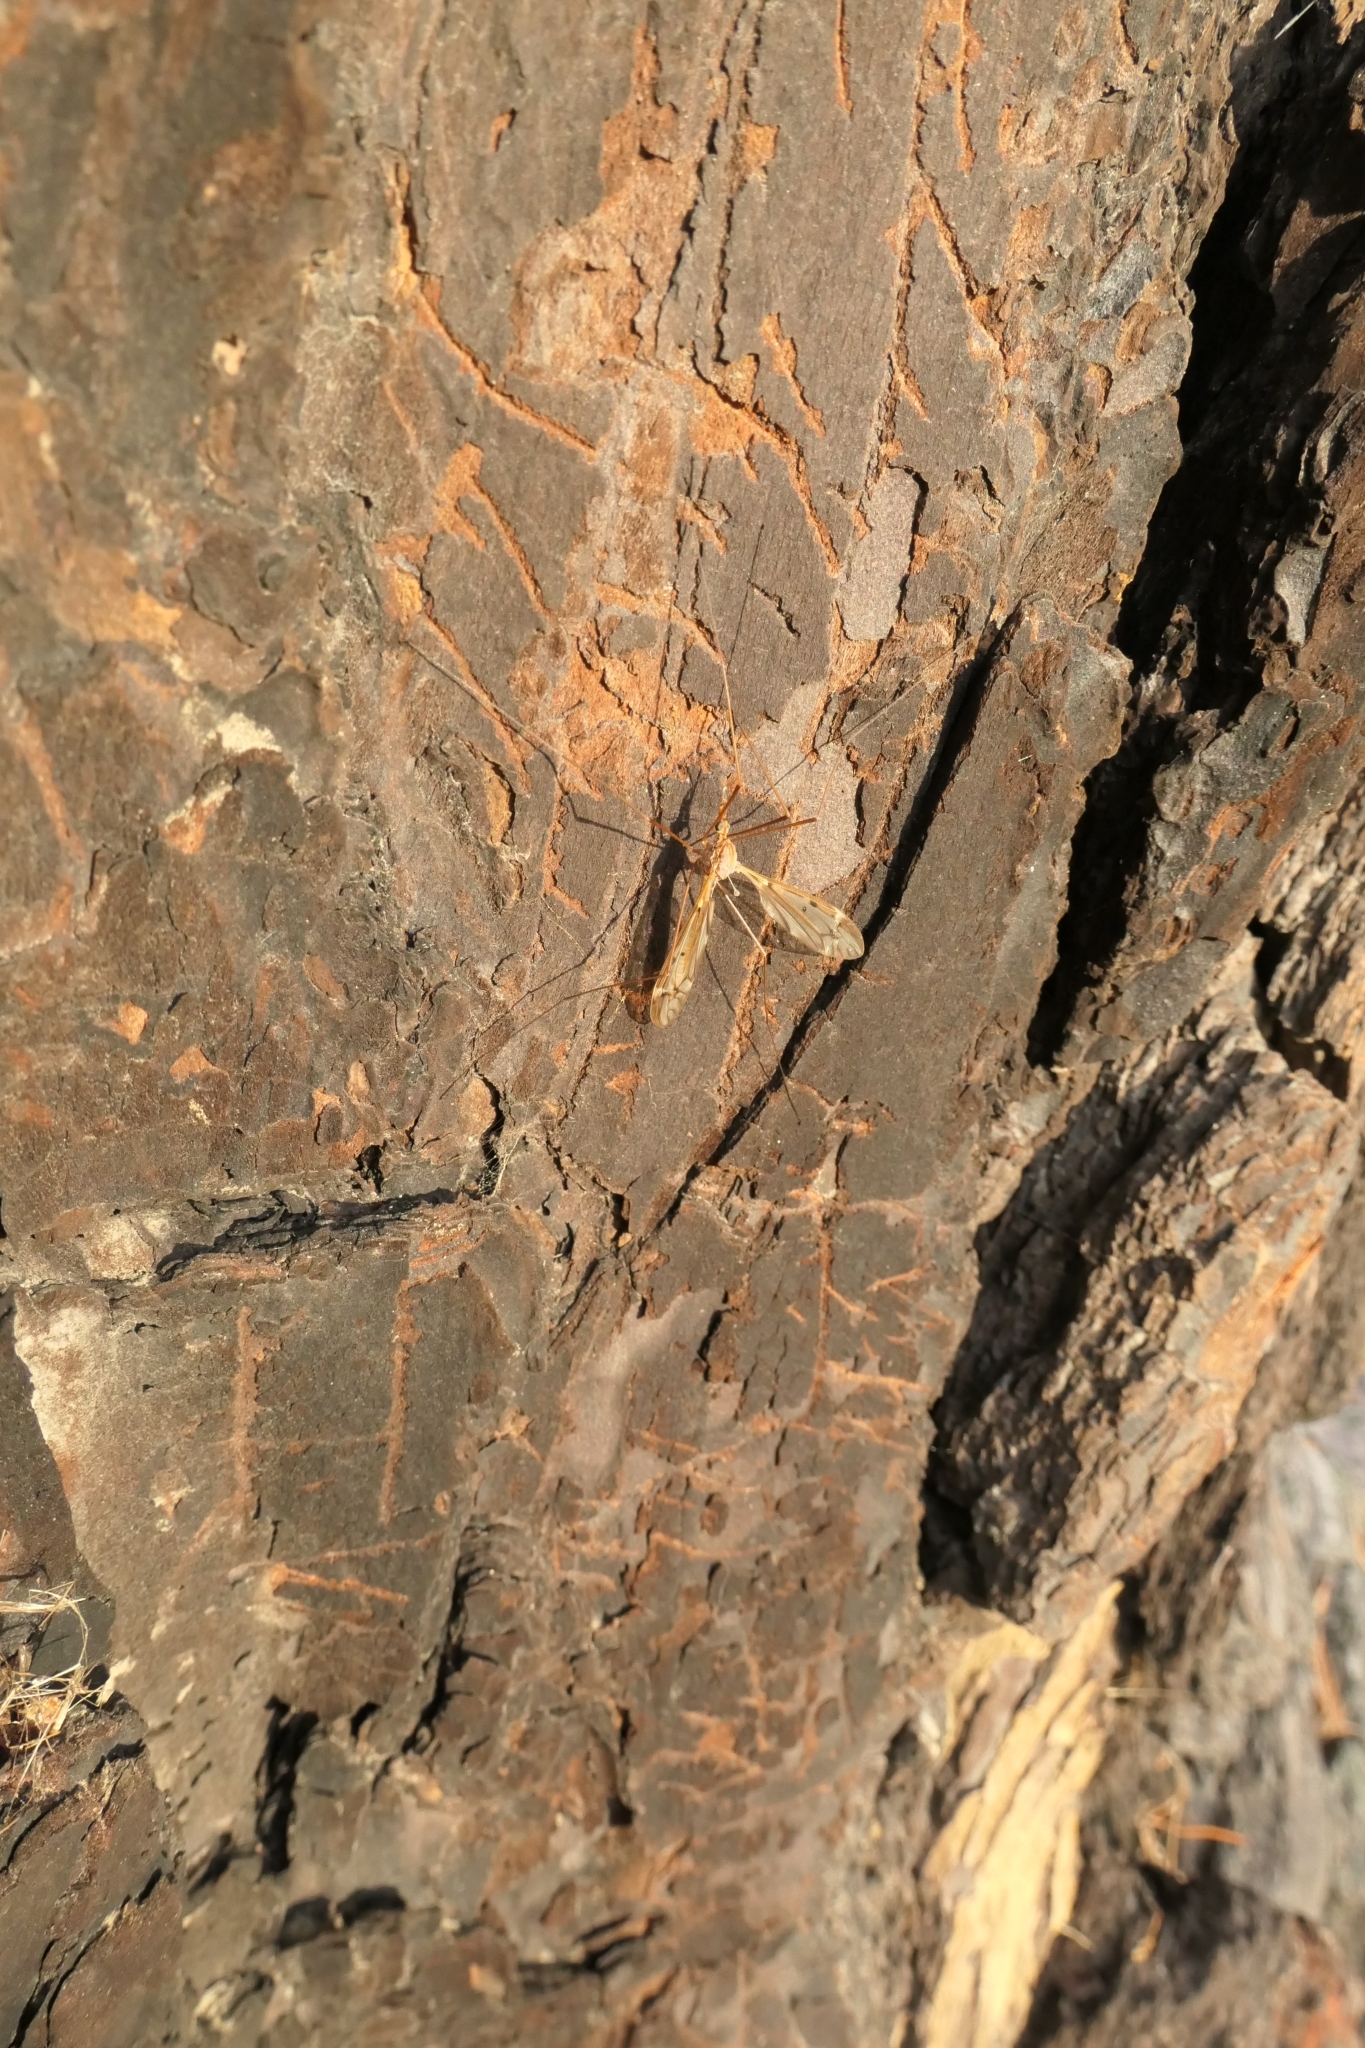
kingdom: Animalia
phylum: Arthropoda
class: Insecta
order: Diptera
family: Tipulidae
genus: Zelandotipula
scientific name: Zelandotipula novarae
